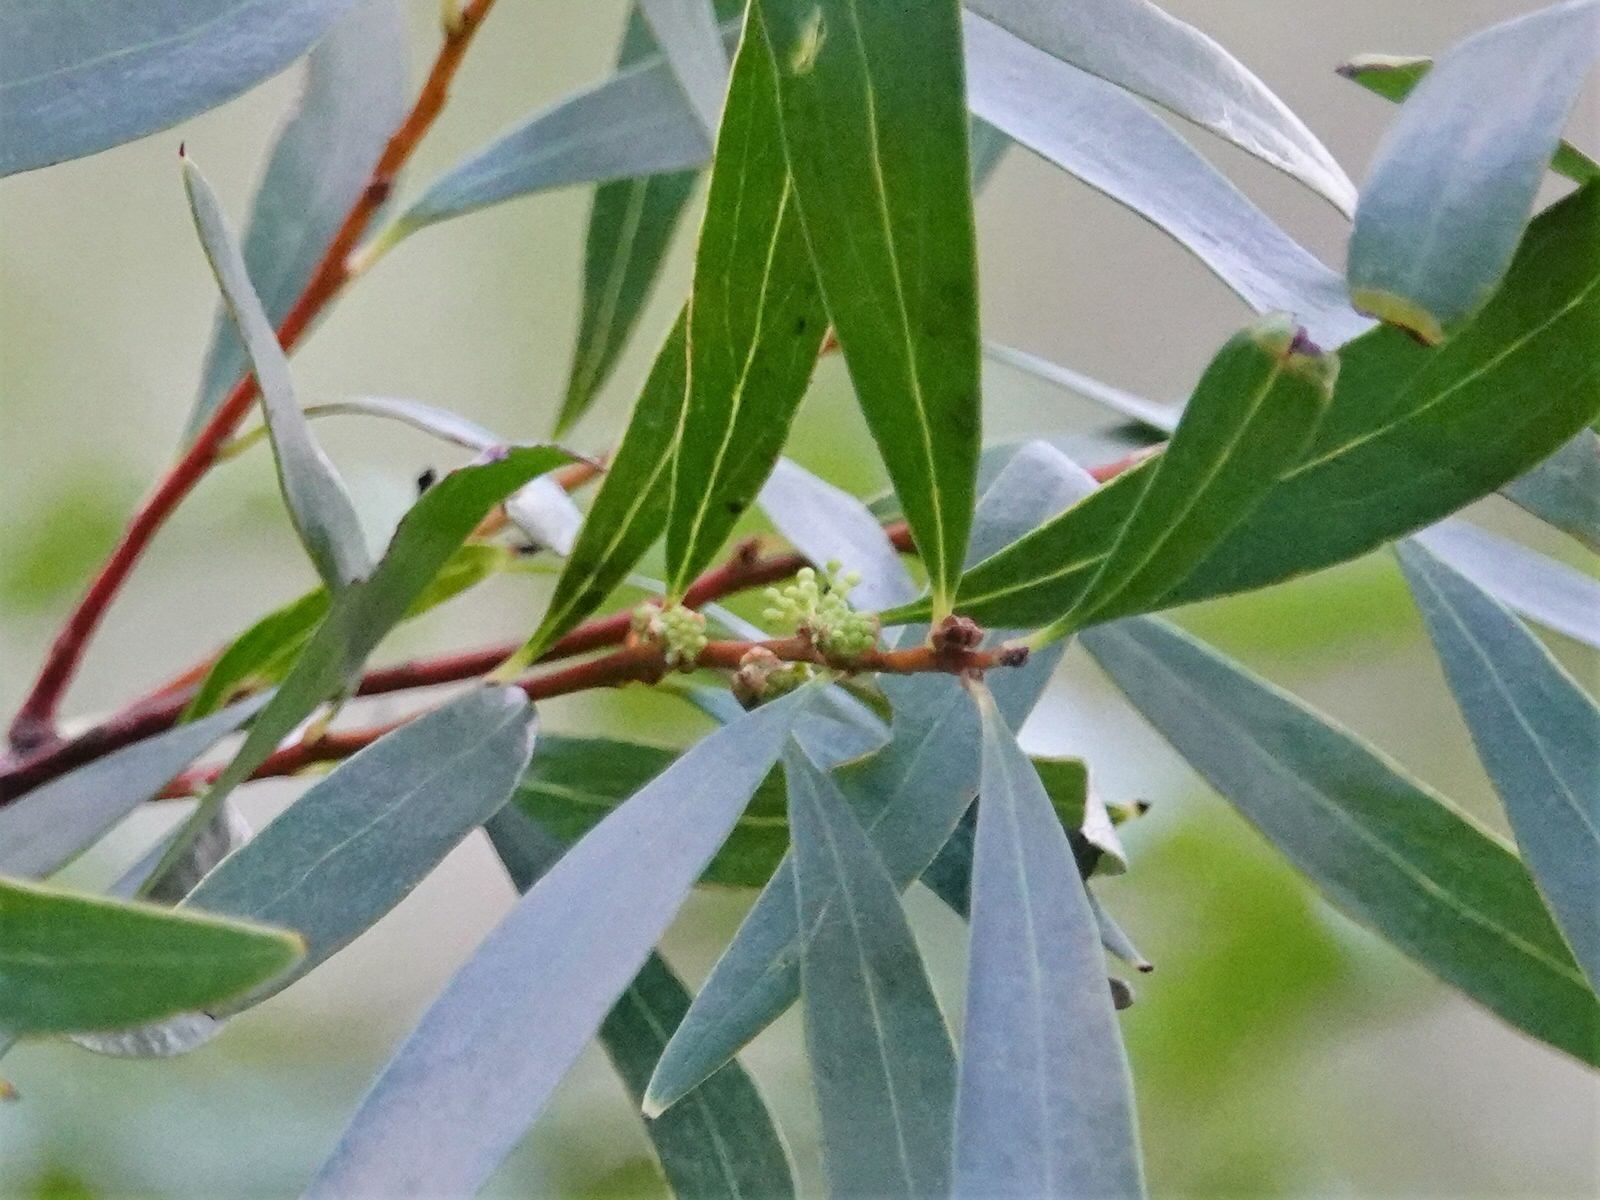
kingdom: Plantae
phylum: Tracheophyta
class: Magnoliopsida
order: Proteales
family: Proteaceae
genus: Hakea
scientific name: Hakea salicifolia
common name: Willow hakea
